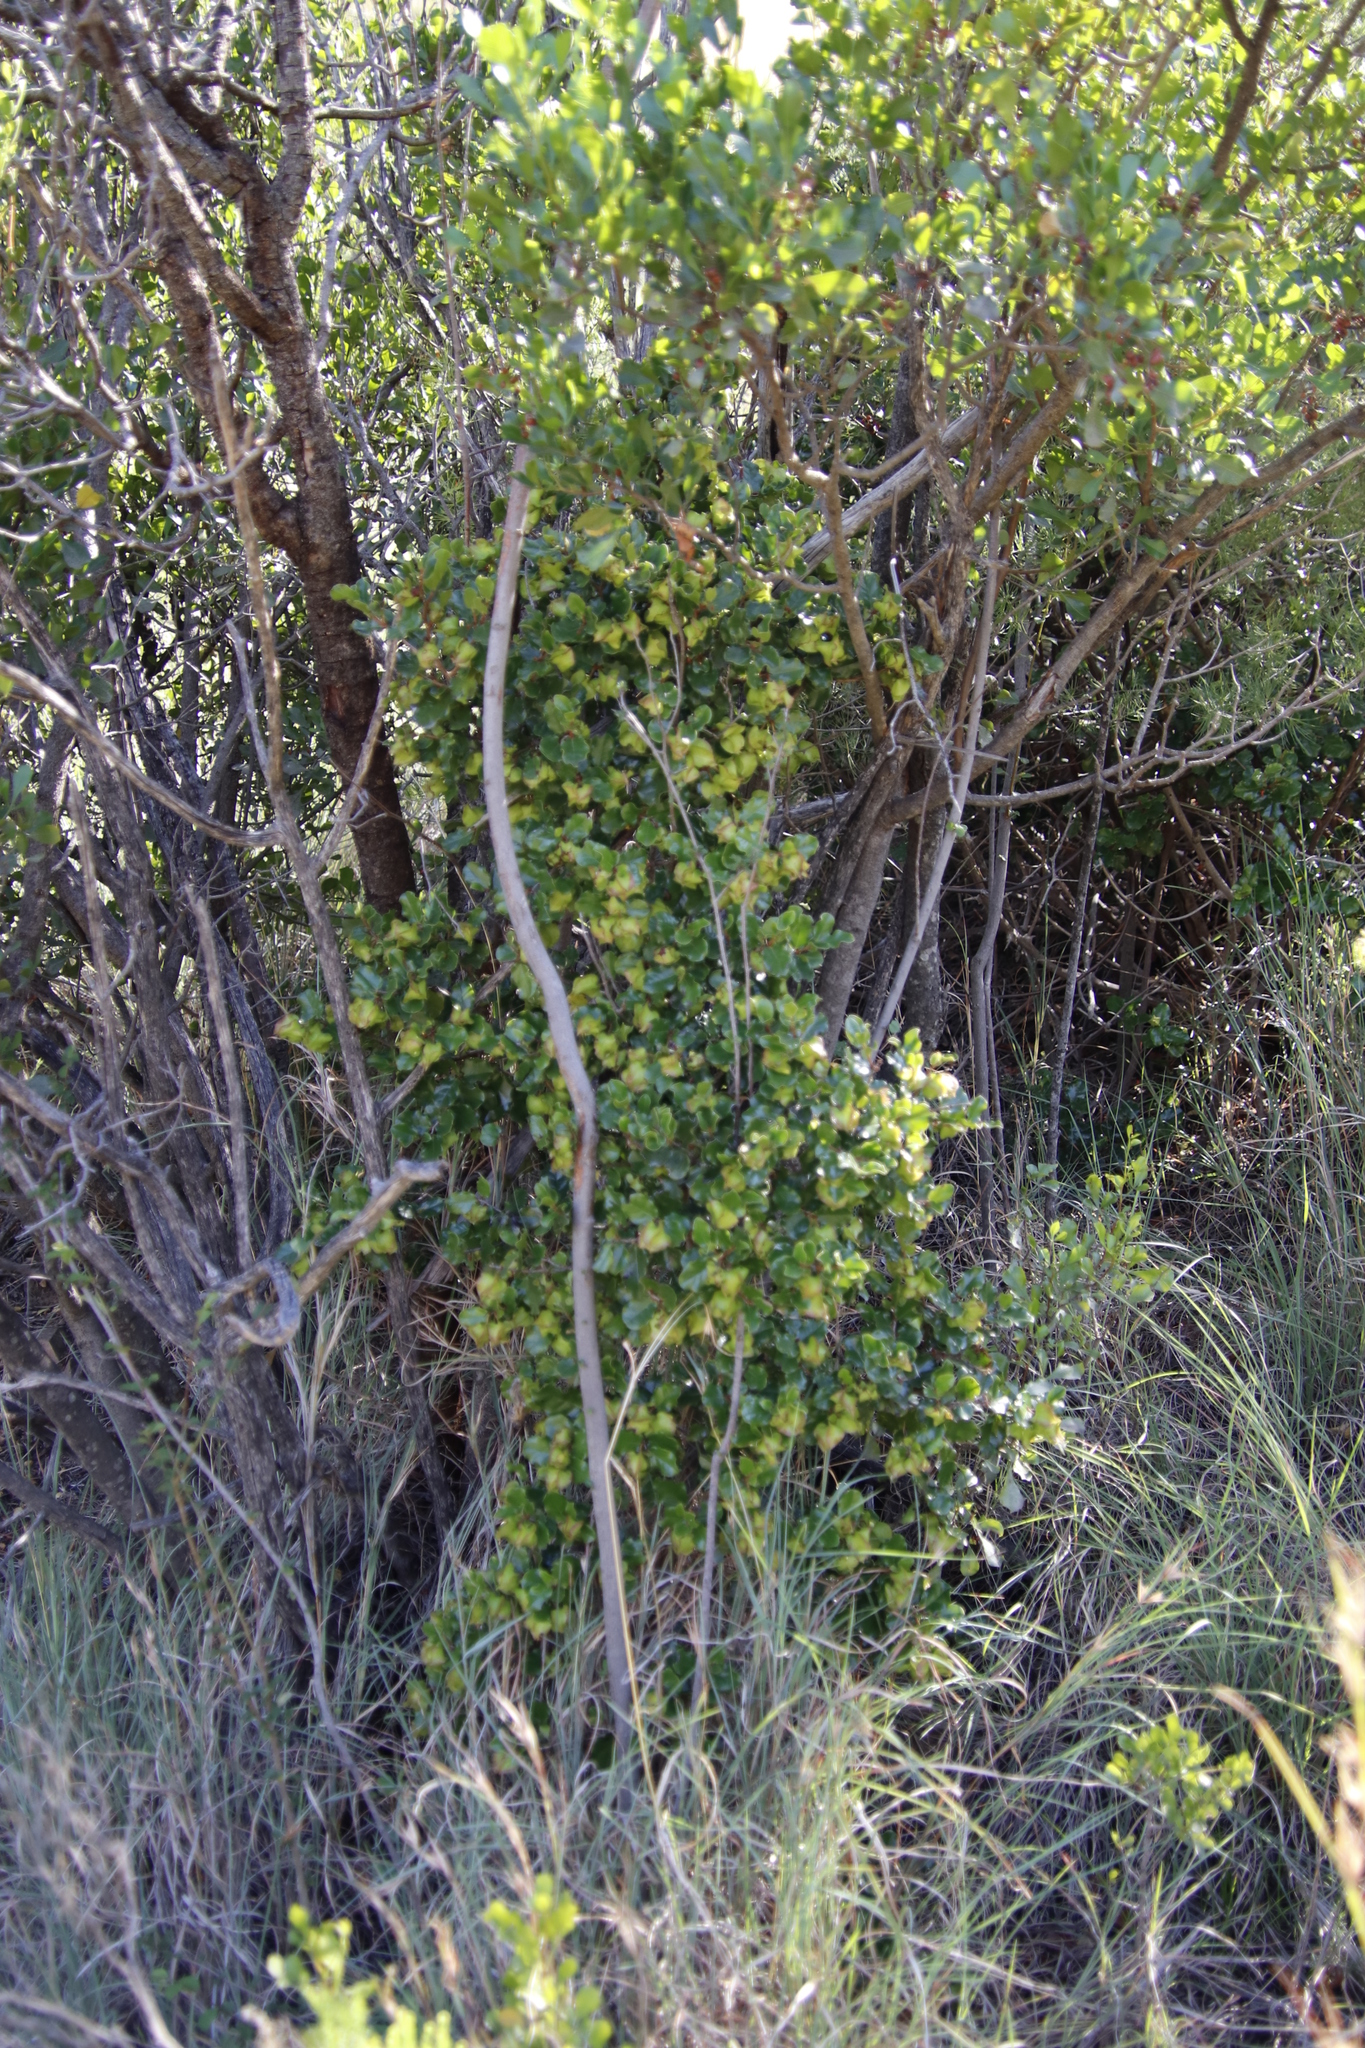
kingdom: Plantae
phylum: Tracheophyta
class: Magnoliopsida
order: Ericales
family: Ebenaceae
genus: Diospyros
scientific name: Diospyros whyteana
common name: Bladder-nut
